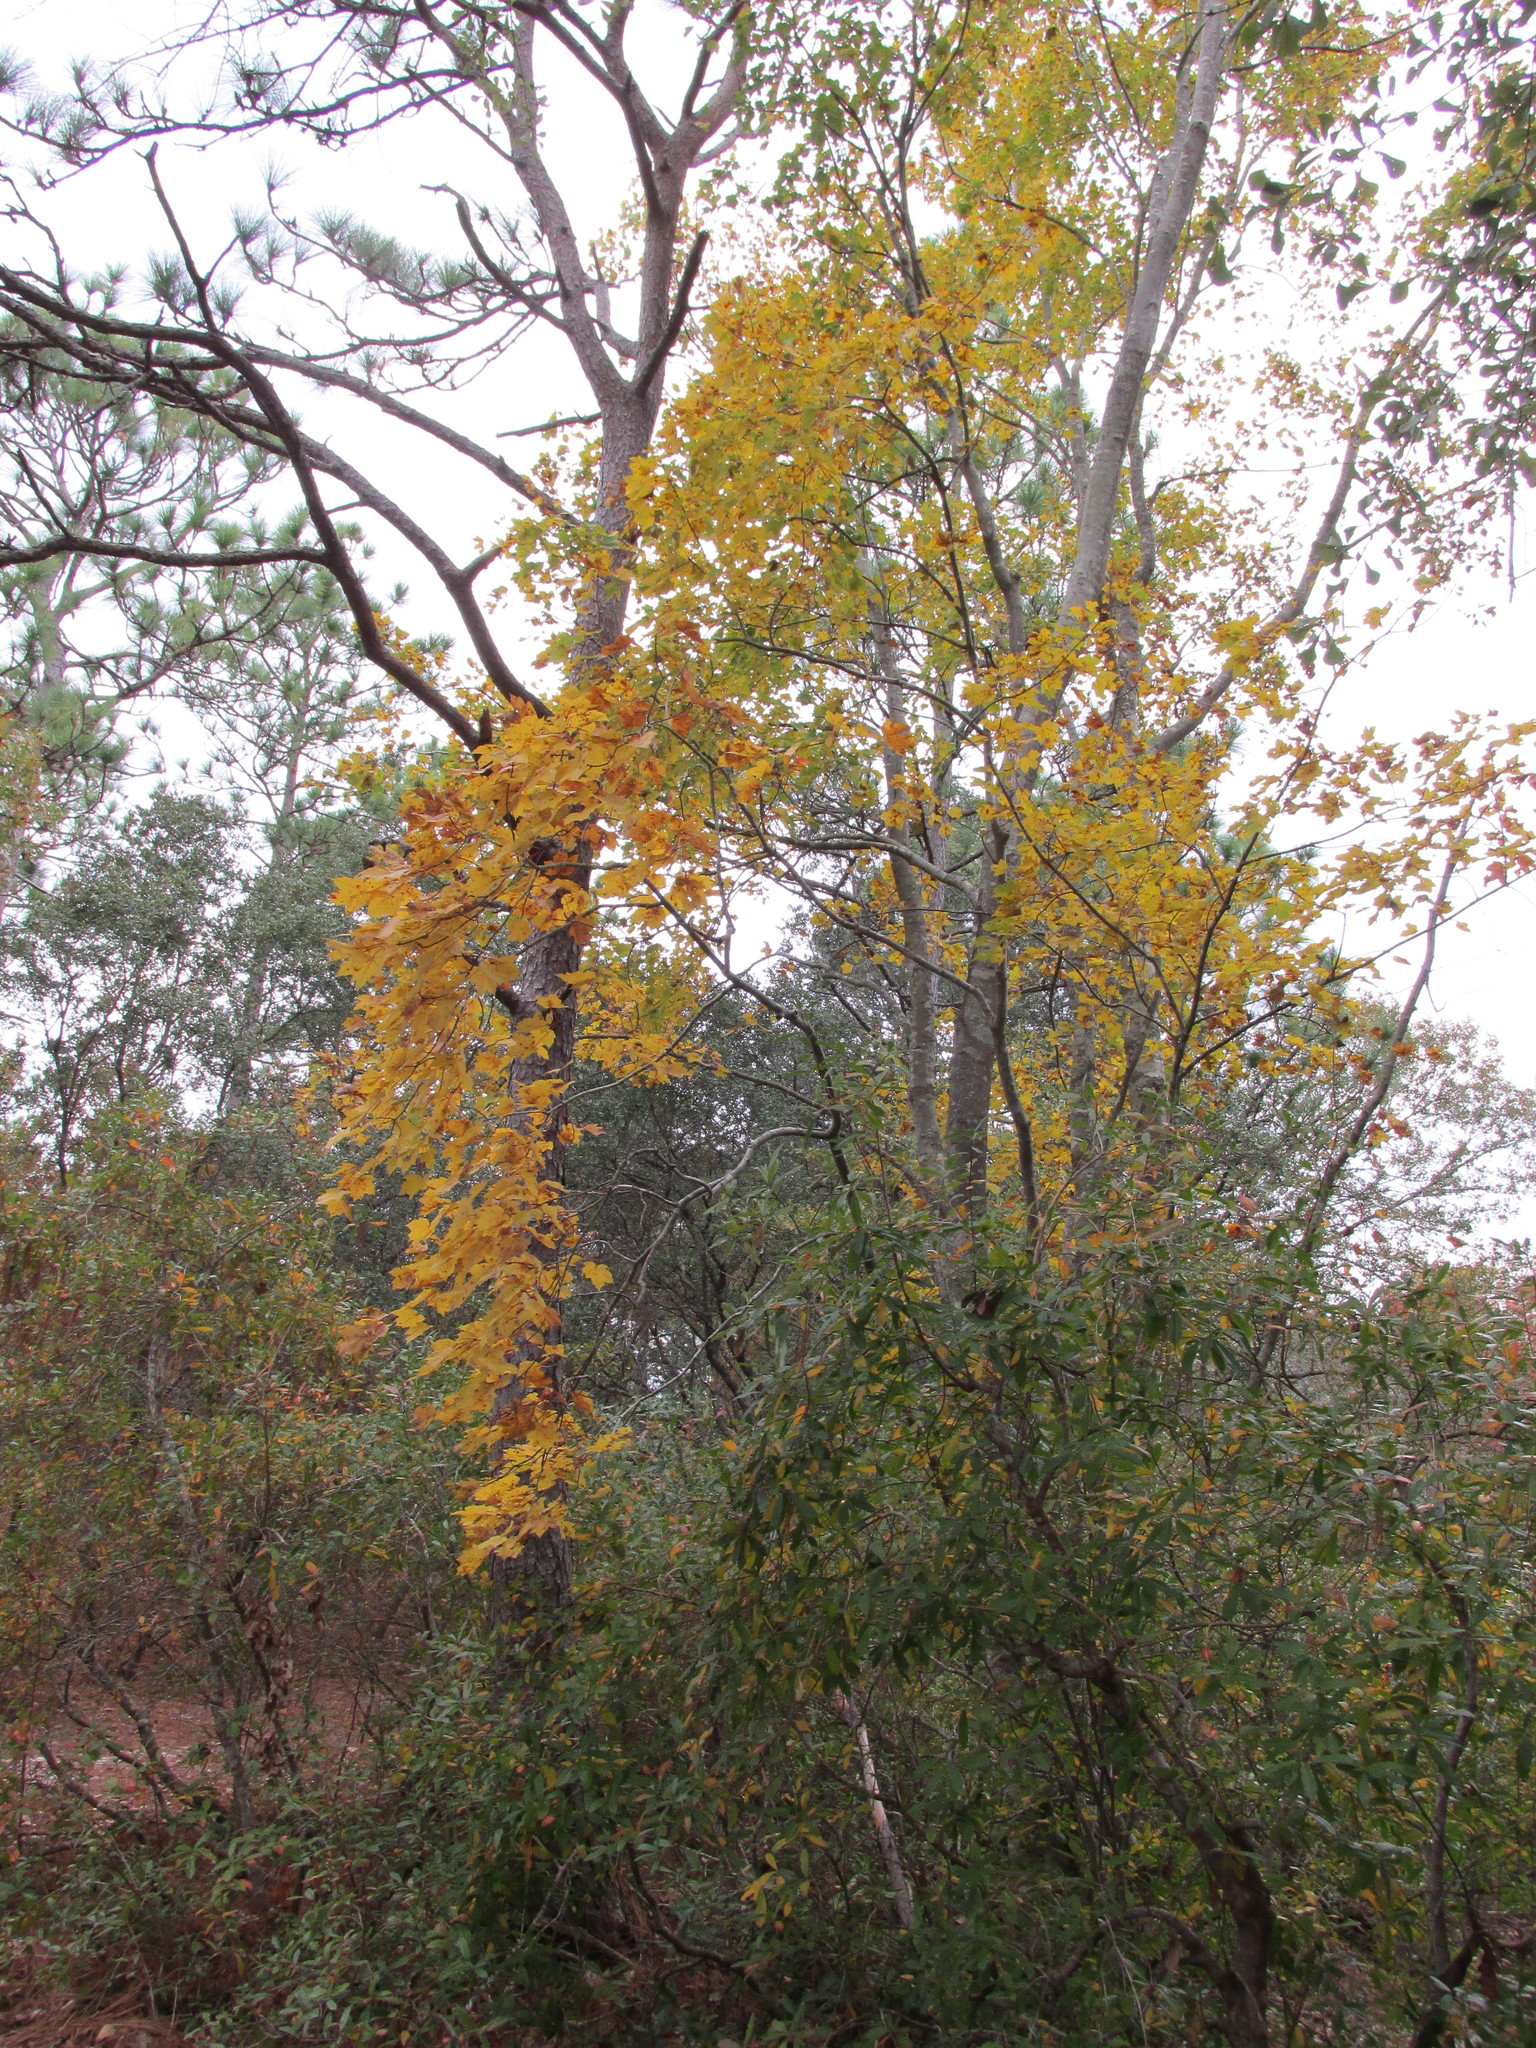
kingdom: Plantae
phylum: Tracheophyta
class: Magnoliopsida
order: Sapindales
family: Sapindaceae
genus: Acer
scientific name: Acer rubrum
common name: Red maple
